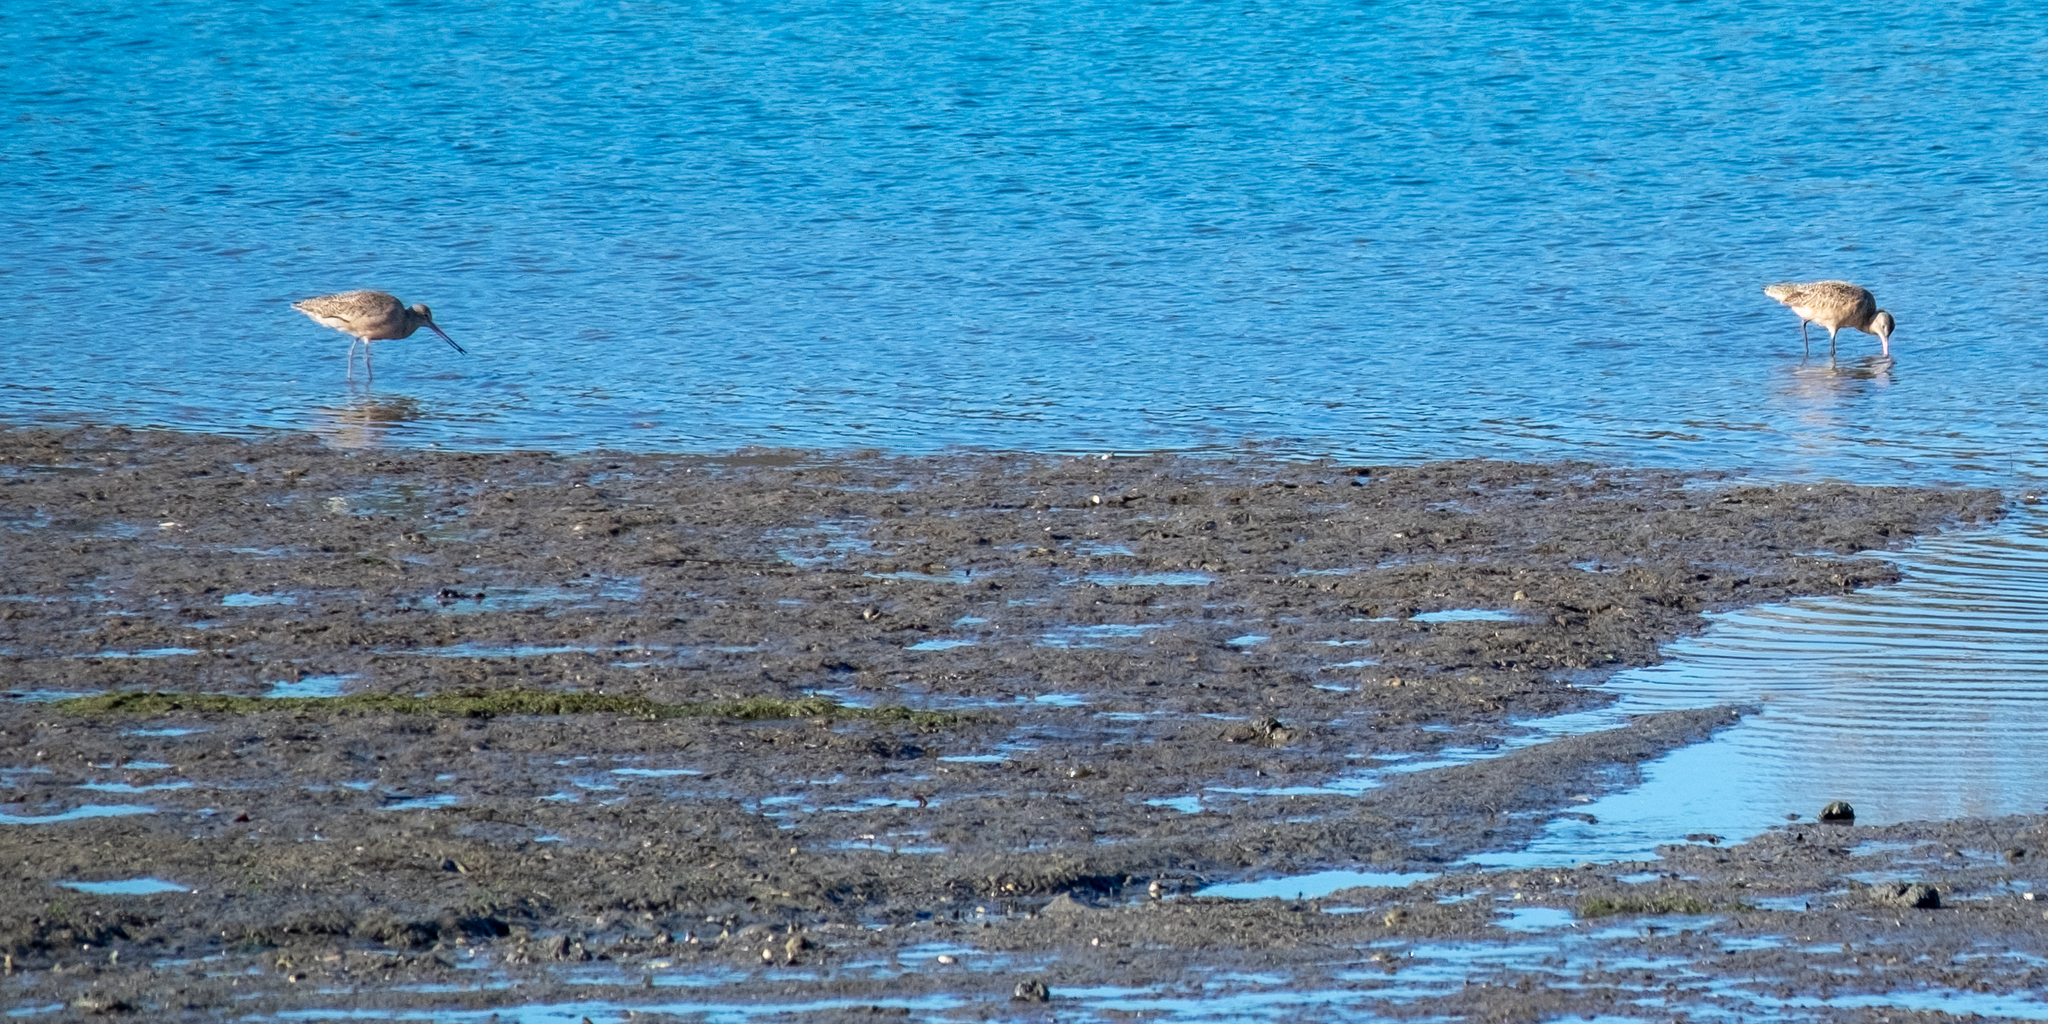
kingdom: Animalia
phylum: Chordata
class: Aves
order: Charadriiformes
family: Scolopacidae
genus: Limosa
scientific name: Limosa fedoa
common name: Marbled godwit
